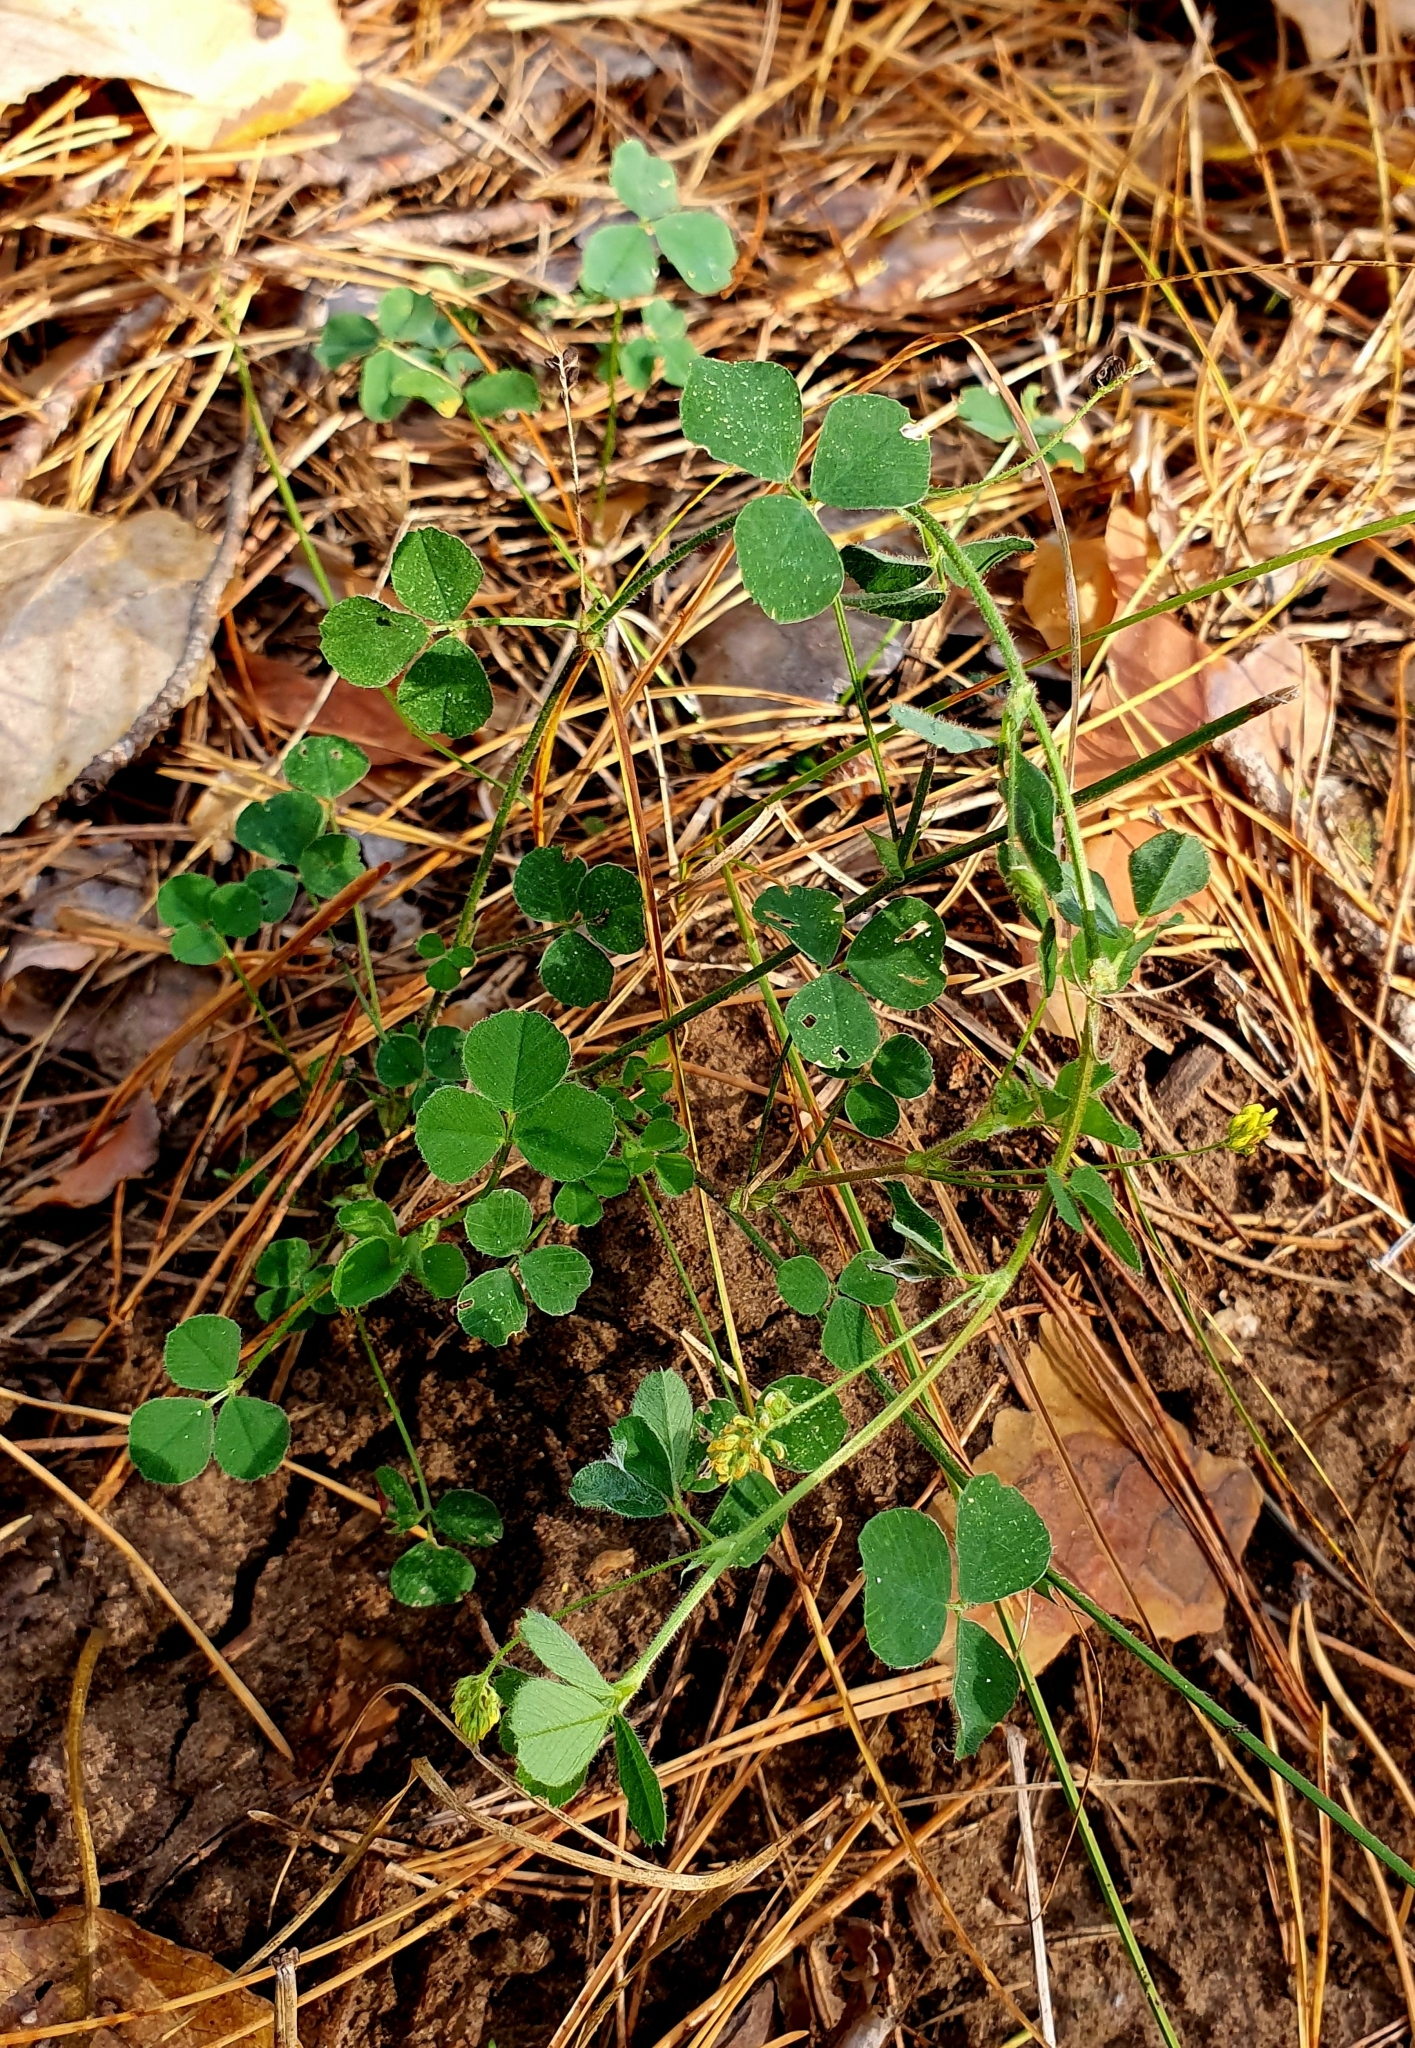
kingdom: Plantae
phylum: Tracheophyta
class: Magnoliopsida
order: Fabales
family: Fabaceae
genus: Medicago
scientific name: Medicago lupulina
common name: Black medick
